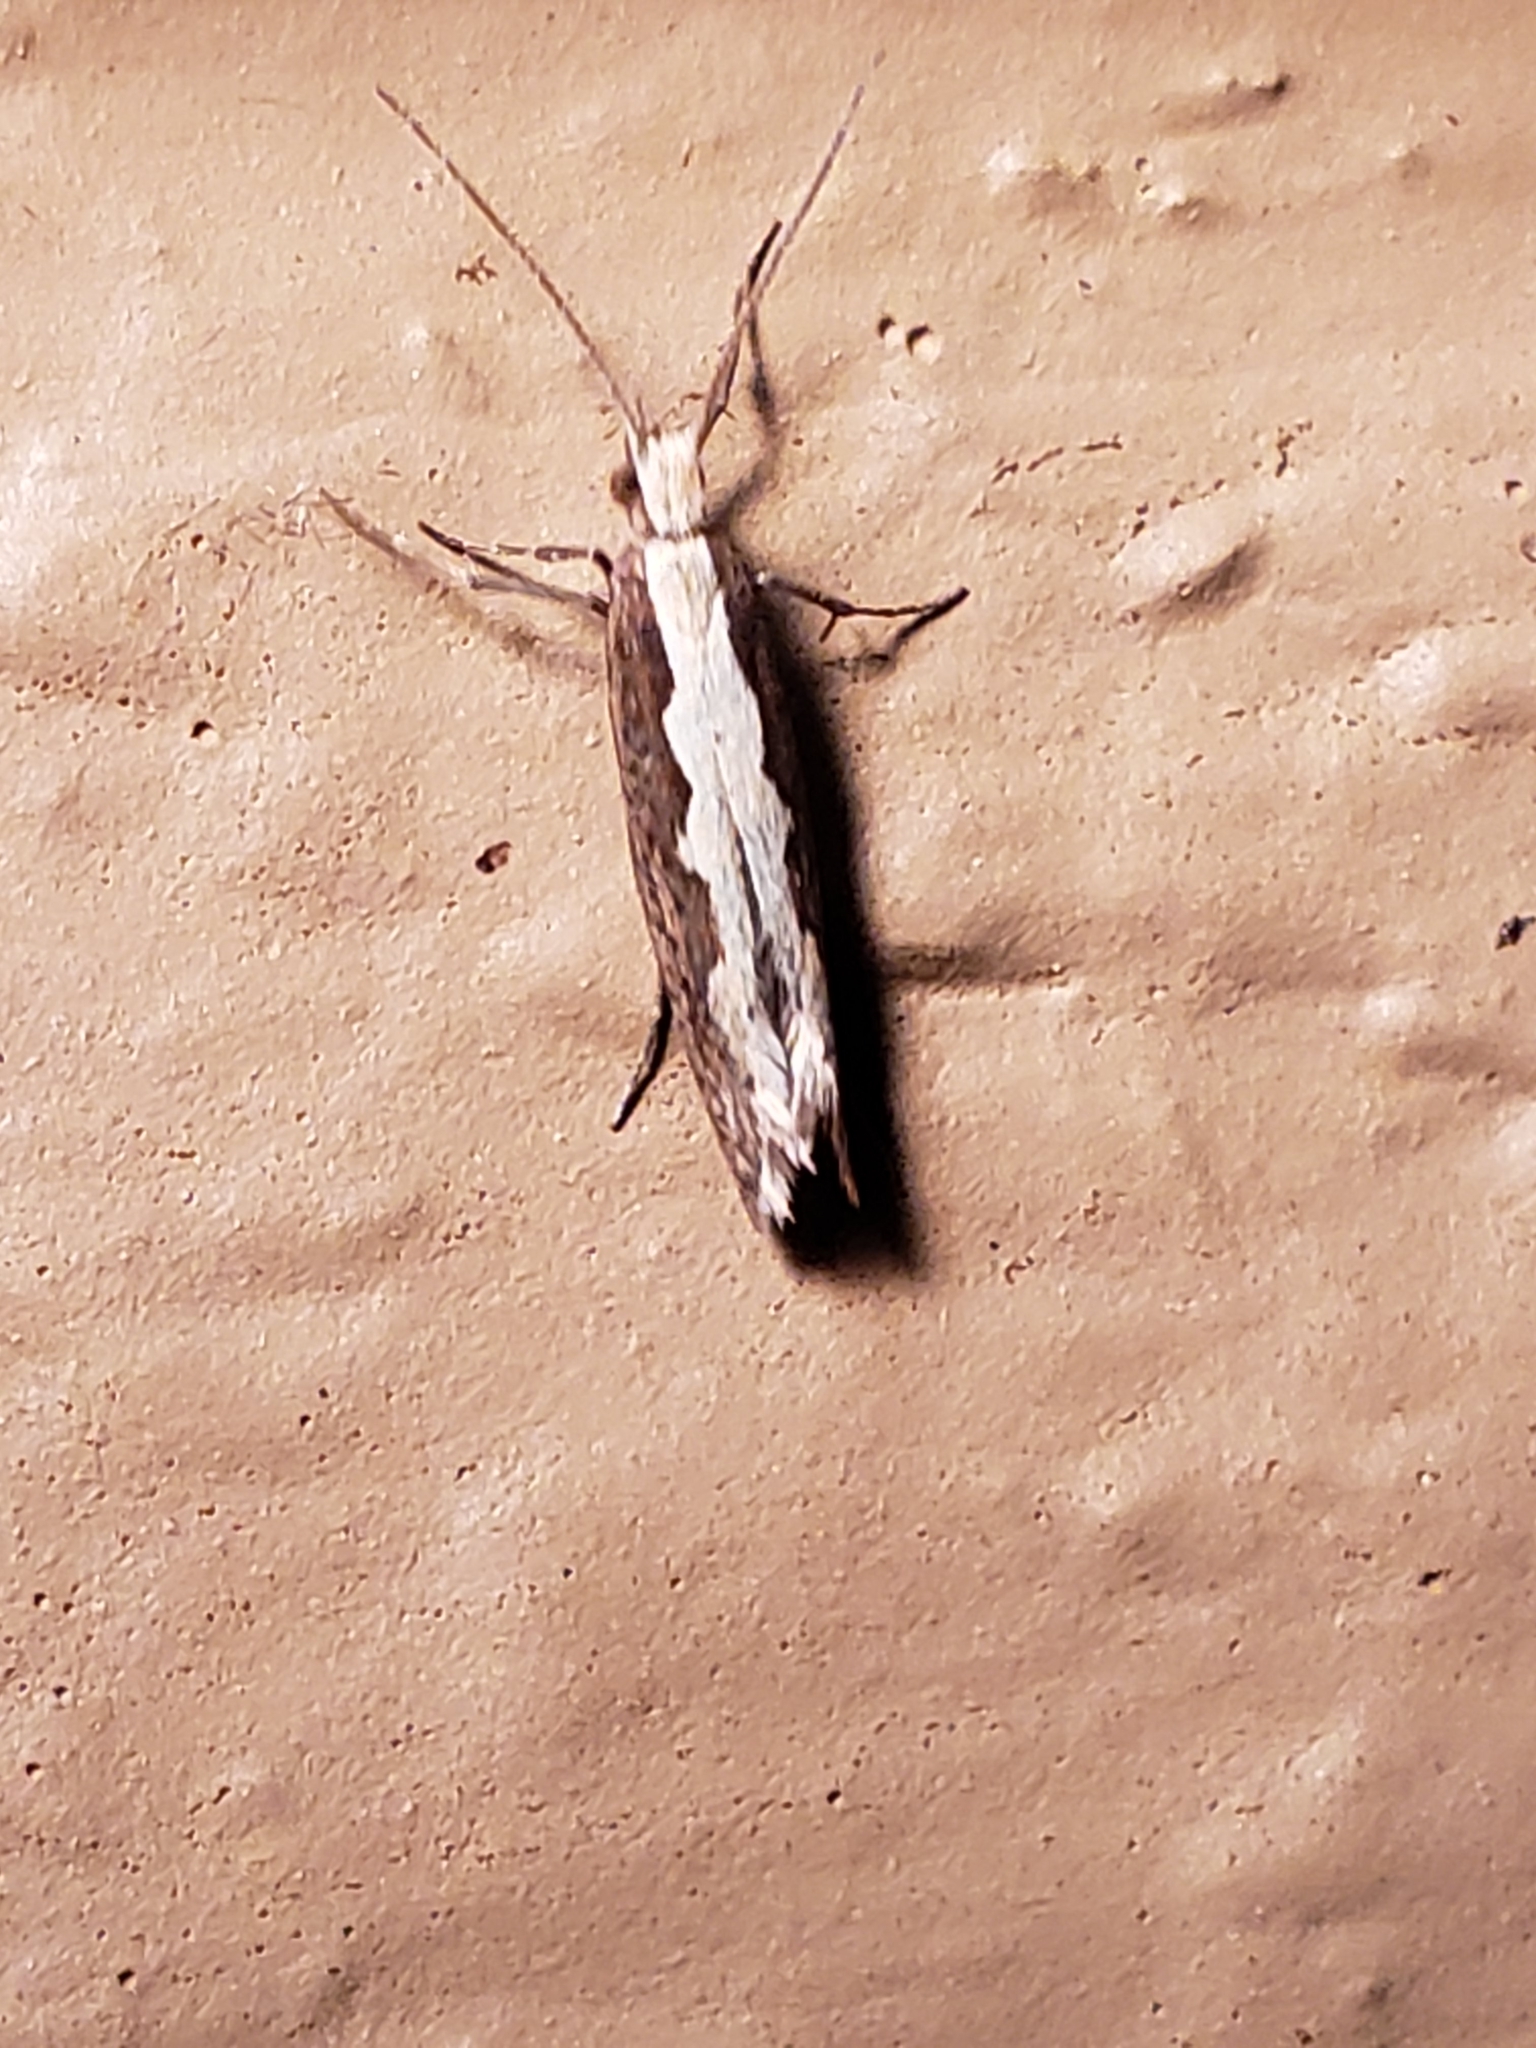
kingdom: Animalia
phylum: Arthropoda
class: Insecta
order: Lepidoptera
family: Plutellidae
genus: Plutella
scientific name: Plutella xylostella
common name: Diamond-back moth
